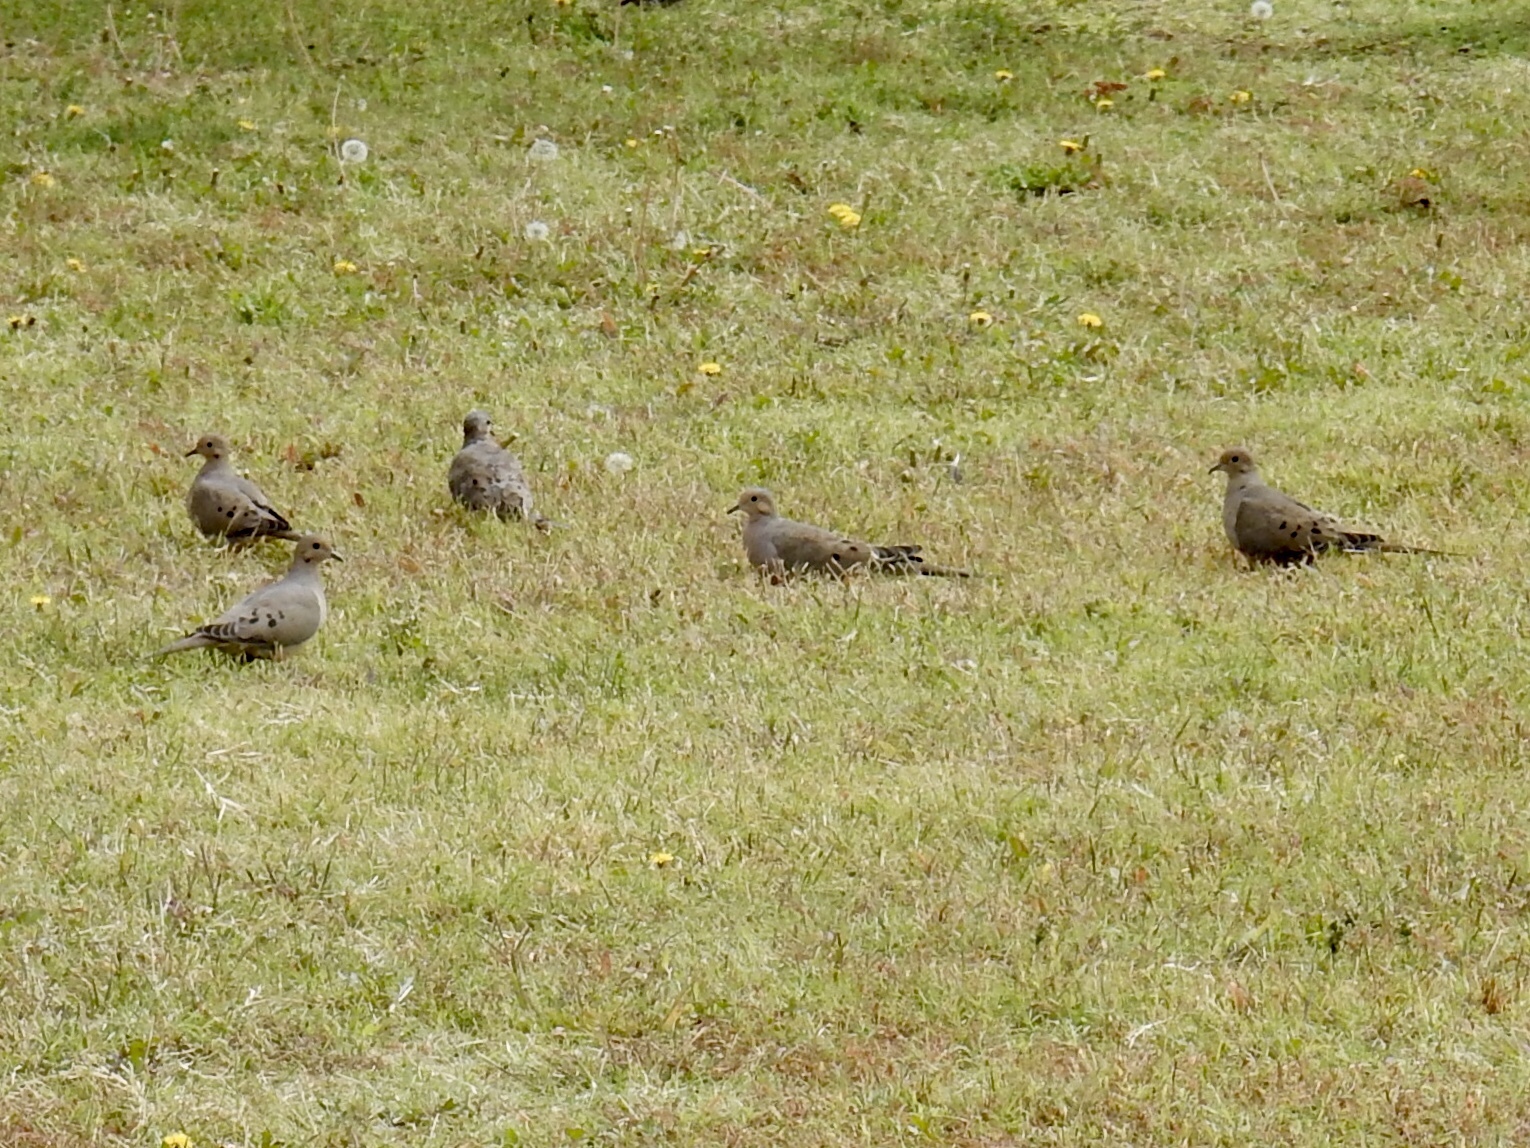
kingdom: Animalia
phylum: Chordata
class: Aves
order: Columbiformes
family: Columbidae
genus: Zenaida
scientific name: Zenaida macroura
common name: Mourning dove
